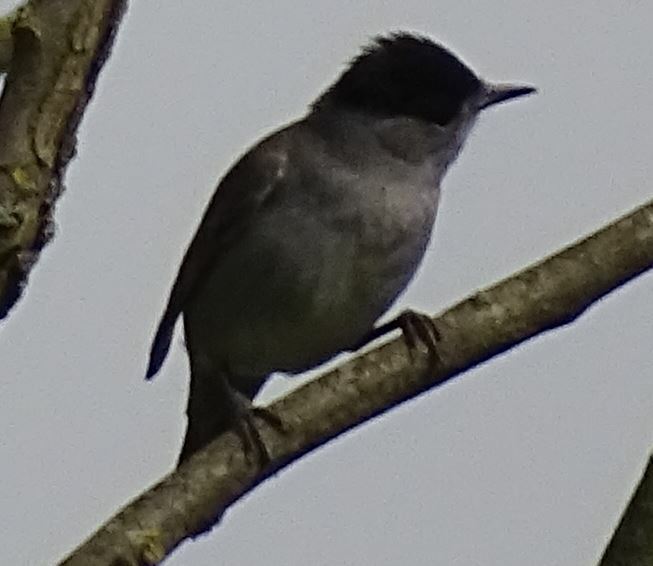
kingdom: Animalia
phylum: Chordata
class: Aves
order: Passeriformes
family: Sylviidae
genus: Sylvia
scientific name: Sylvia atricapilla
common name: Eurasian blackcap
